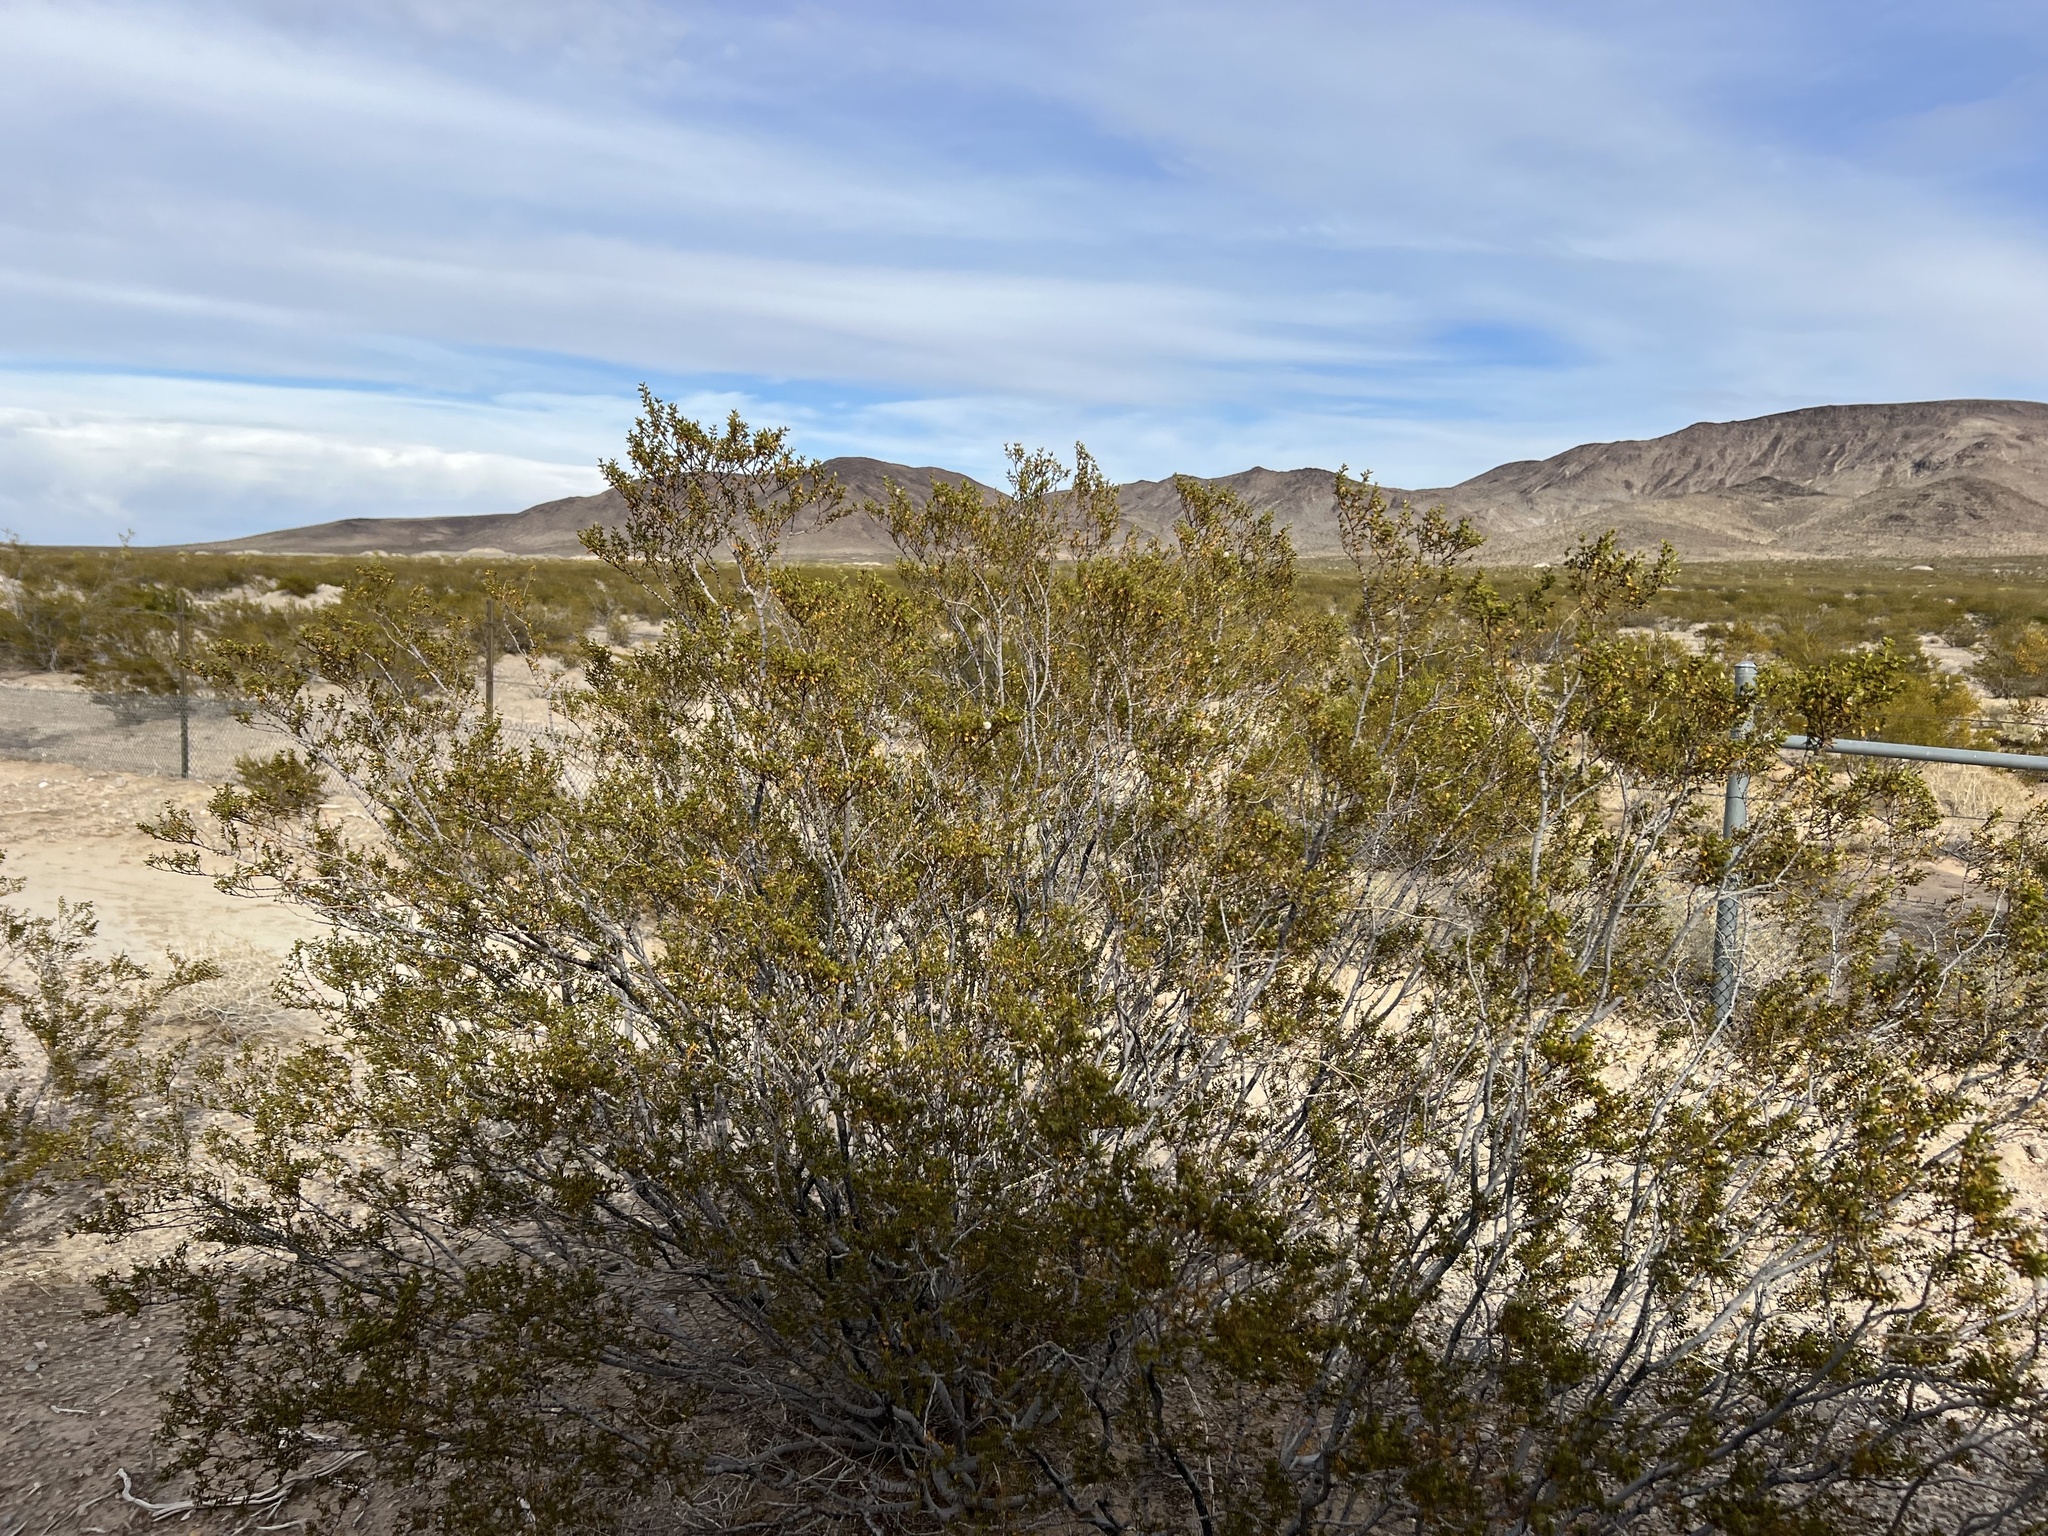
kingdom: Plantae
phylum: Tracheophyta
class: Magnoliopsida
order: Zygophyllales
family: Zygophyllaceae
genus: Larrea
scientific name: Larrea tridentata
